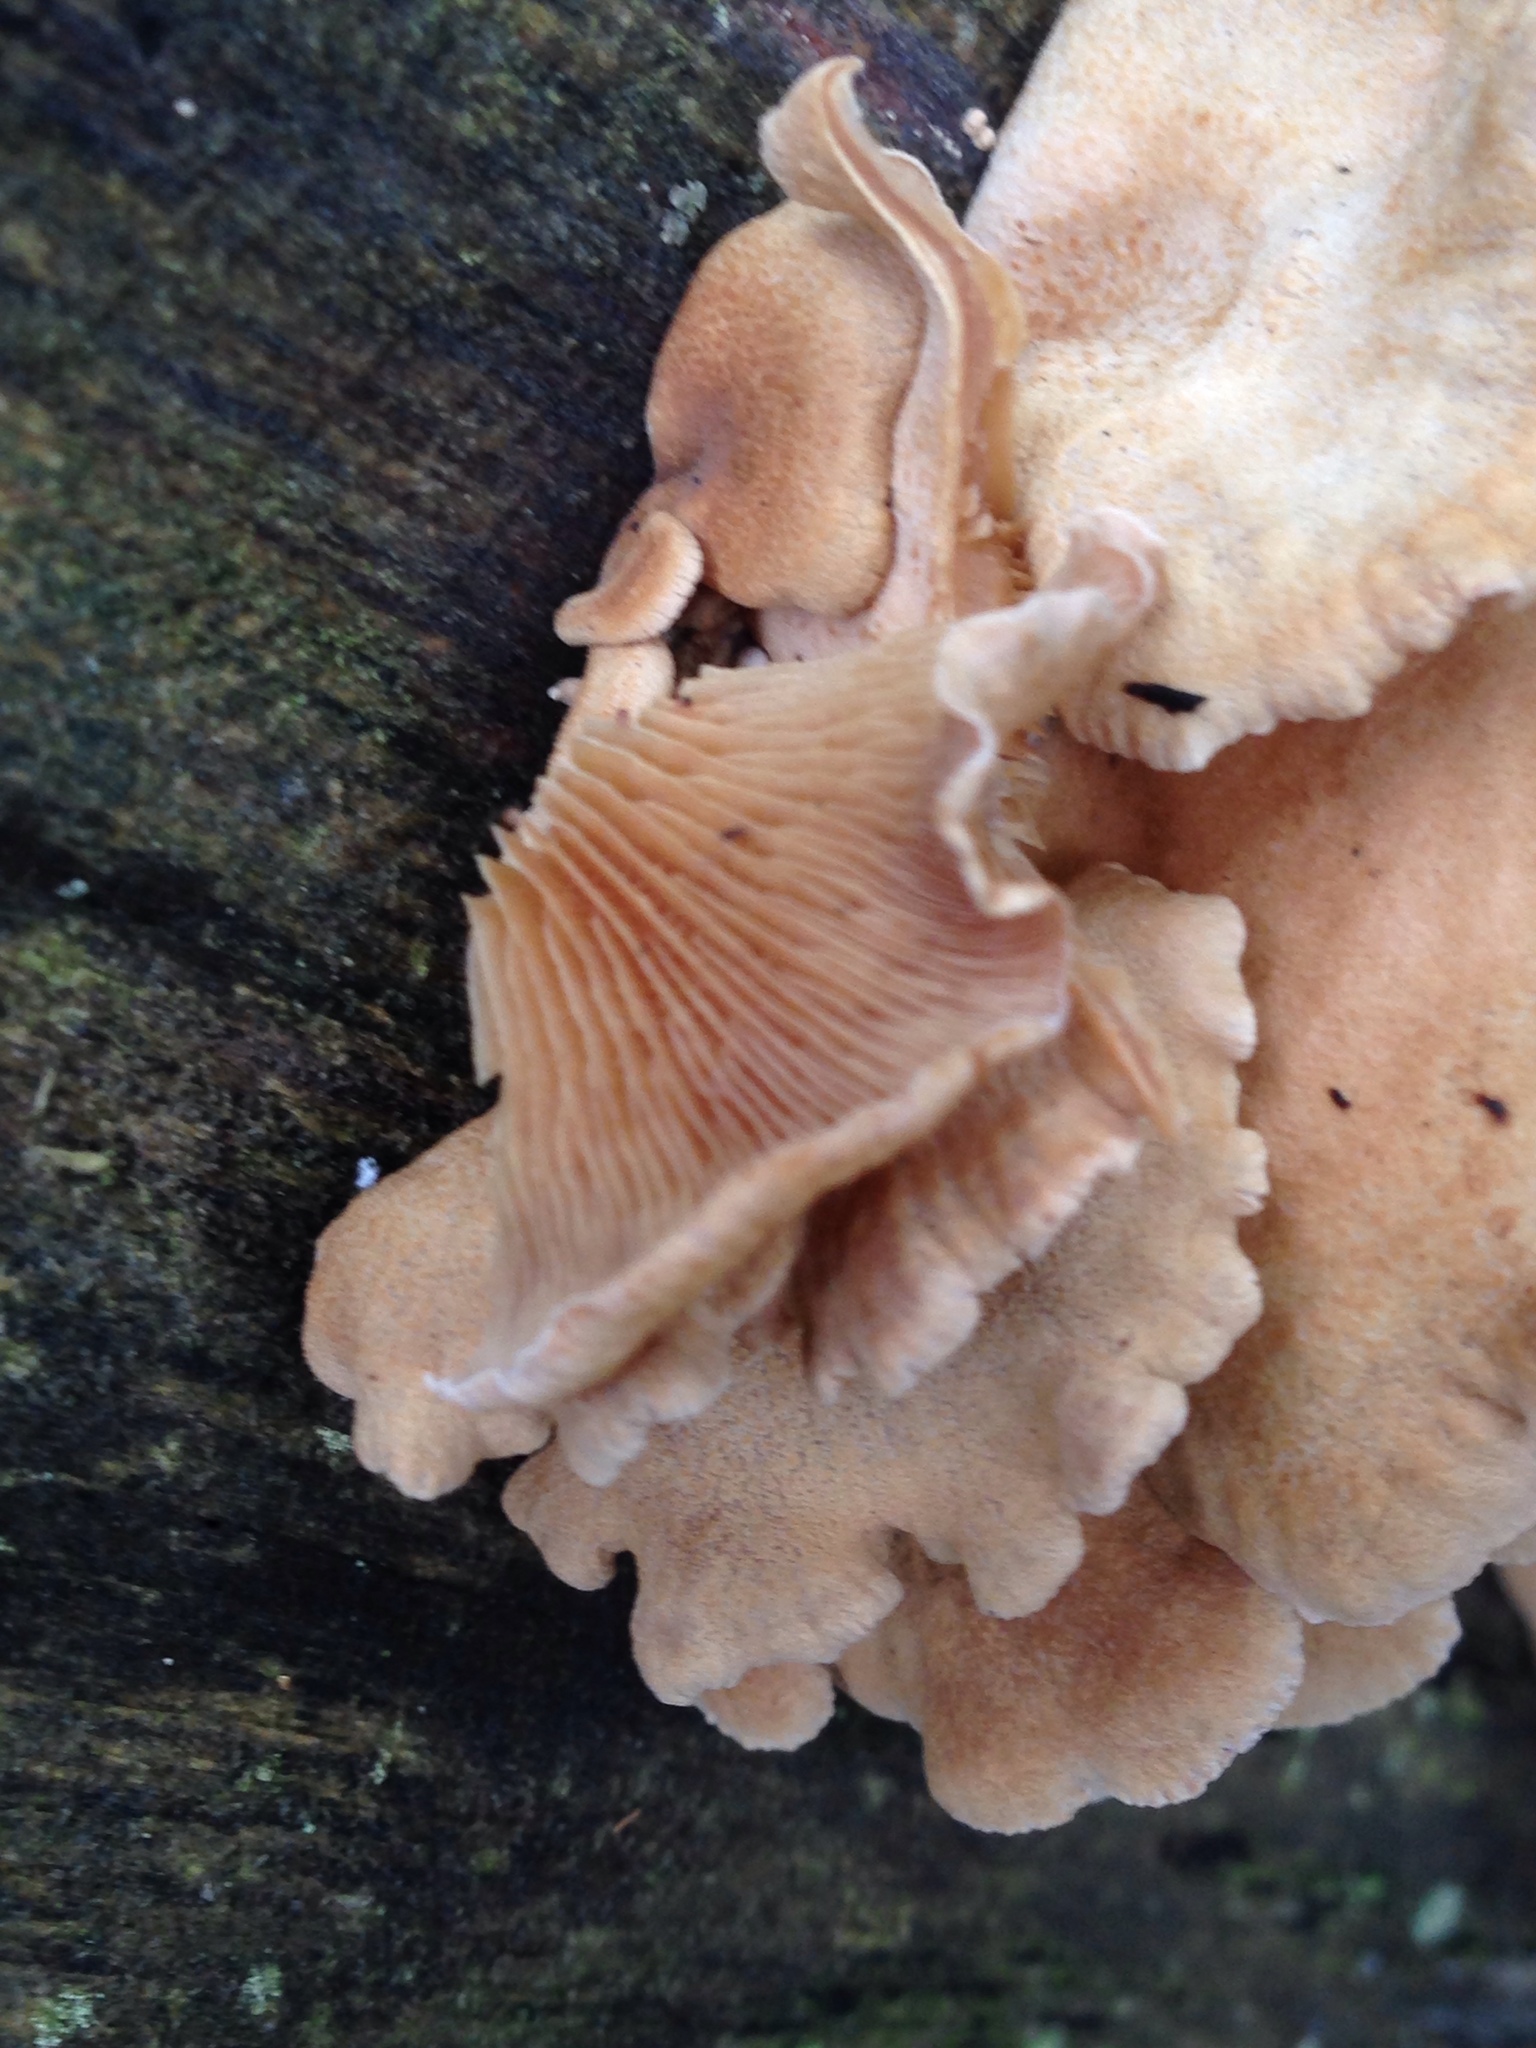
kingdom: Fungi
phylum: Basidiomycota
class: Agaricomycetes
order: Agaricales
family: Mycenaceae
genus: Panellus
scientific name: Panellus stipticus
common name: Bitter oysterling
